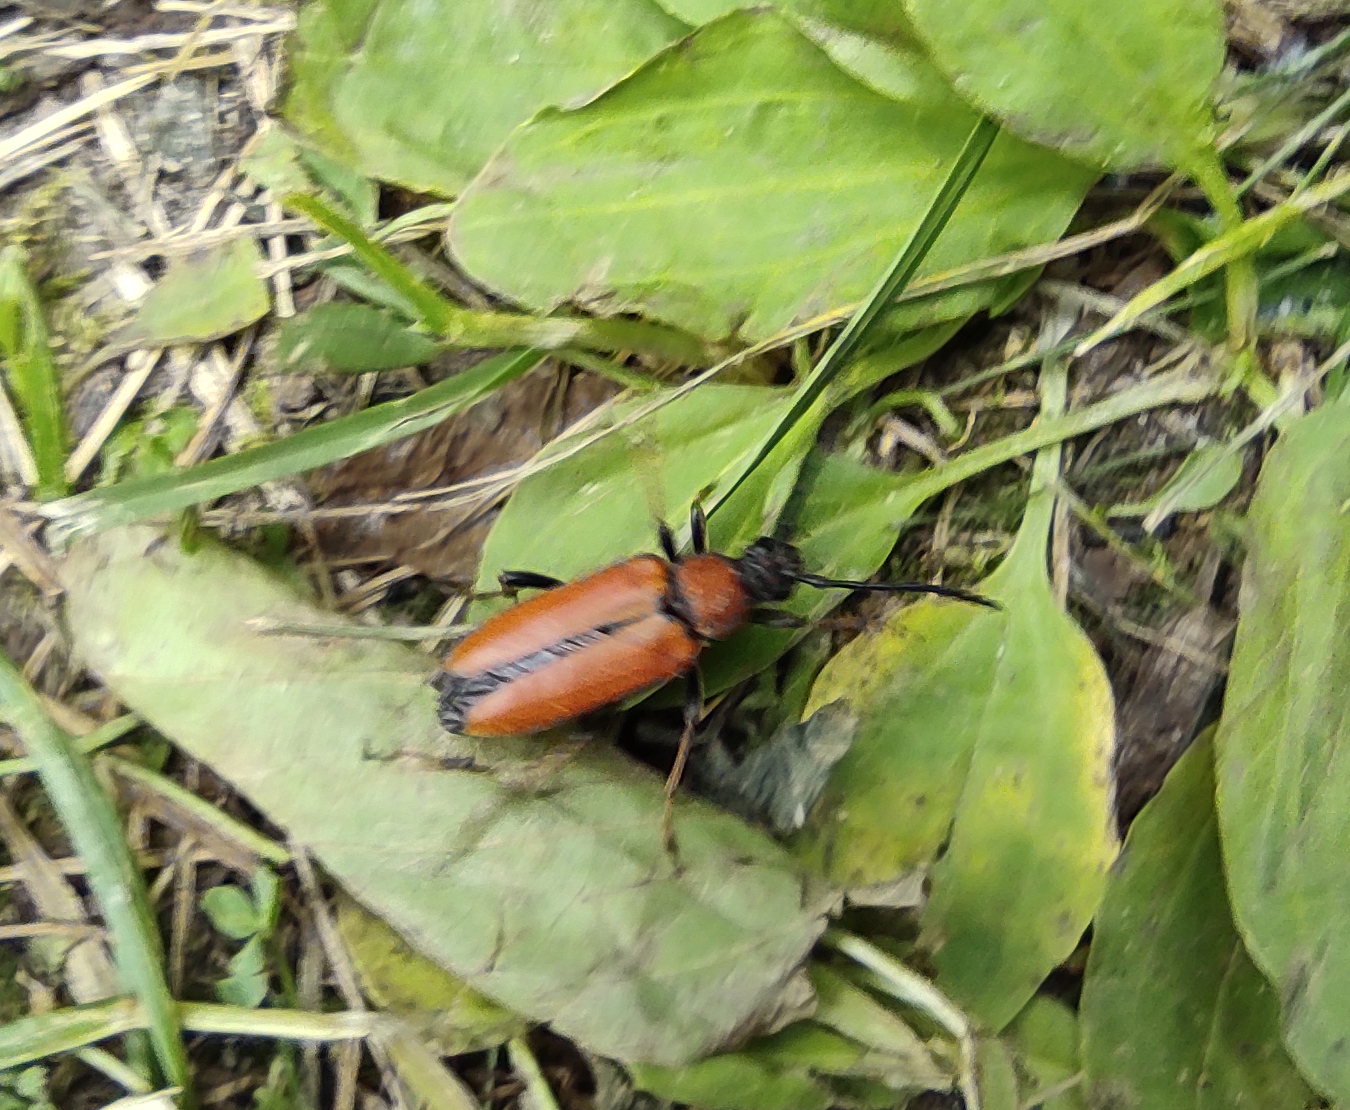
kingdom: Animalia
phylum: Arthropoda
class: Insecta
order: Coleoptera
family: Cerambycidae
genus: Stictoleptura
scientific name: Stictoleptura rubra
